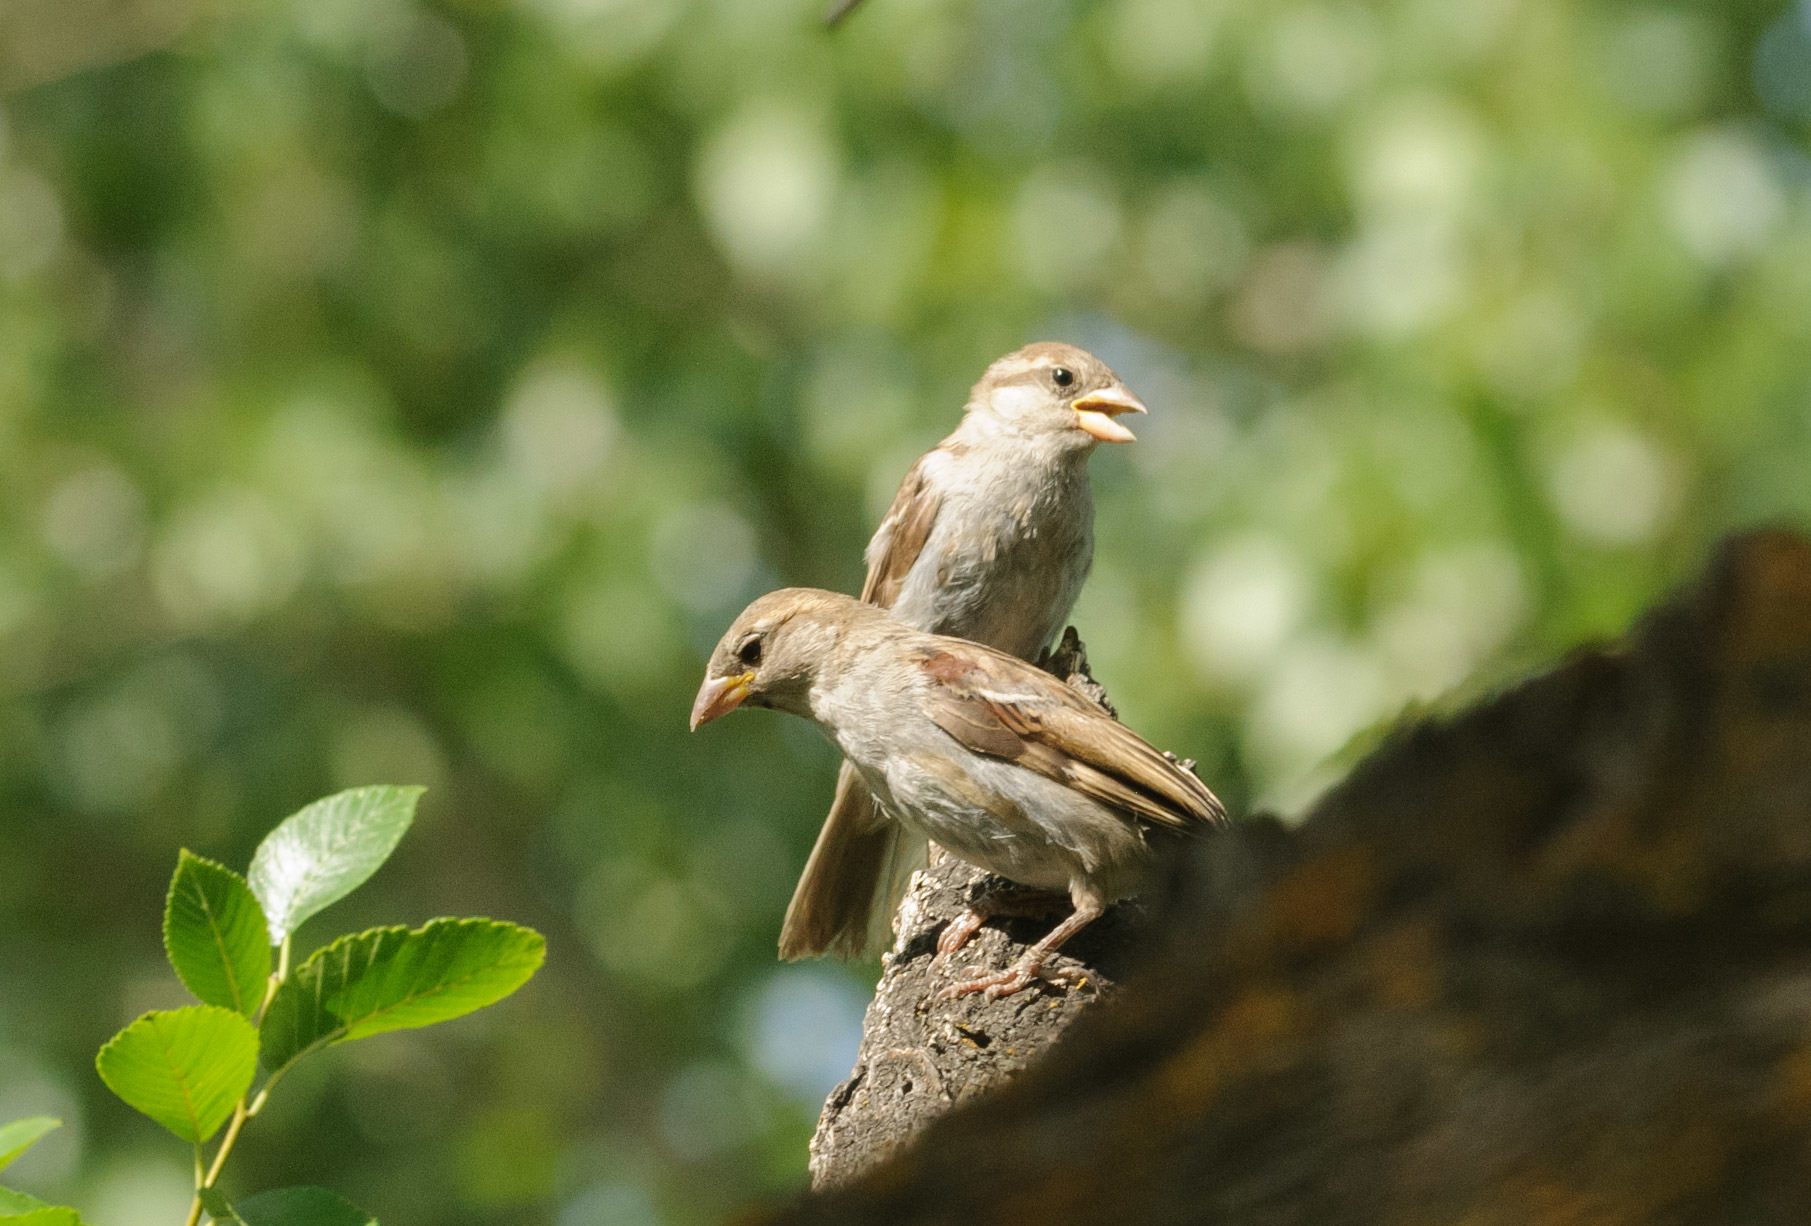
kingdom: Animalia
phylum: Chordata
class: Aves
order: Passeriformes
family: Passeridae
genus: Passer
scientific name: Passer domesticus
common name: House sparrow
